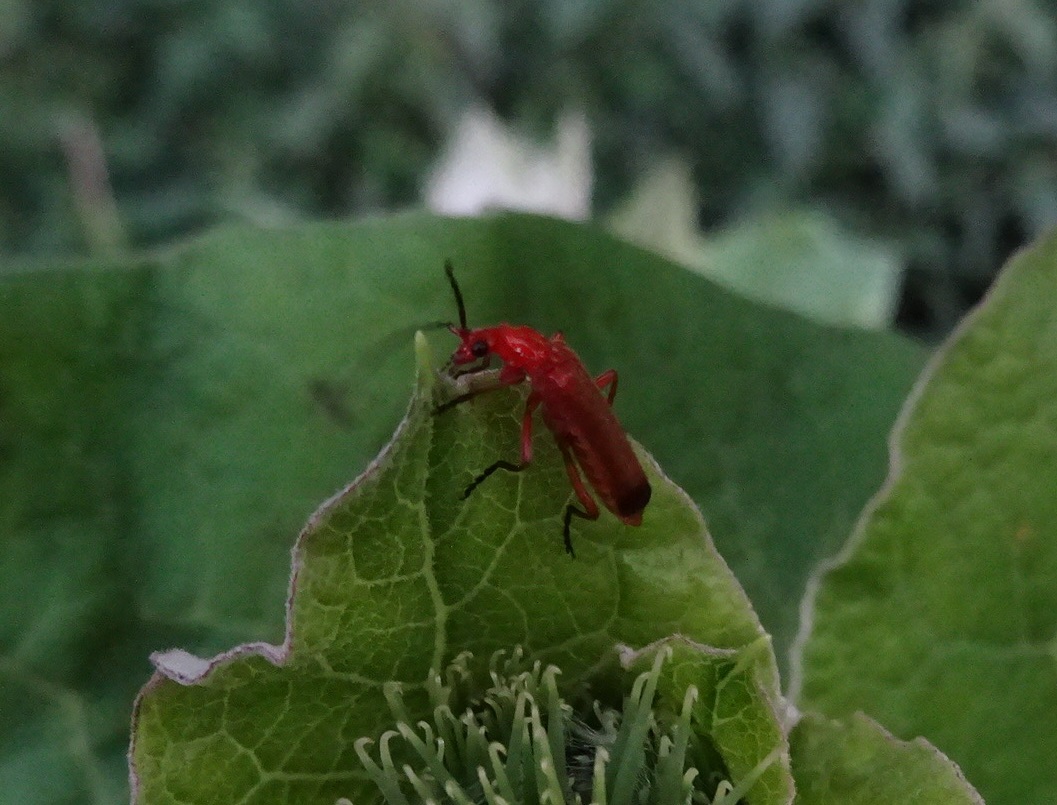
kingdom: Animalia
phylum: Arthropoda
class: Insecta
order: Coleoptera
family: Cantharidae
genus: Rhagonycha
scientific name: Rhagonycha fulva
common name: Common red soldier beetle
